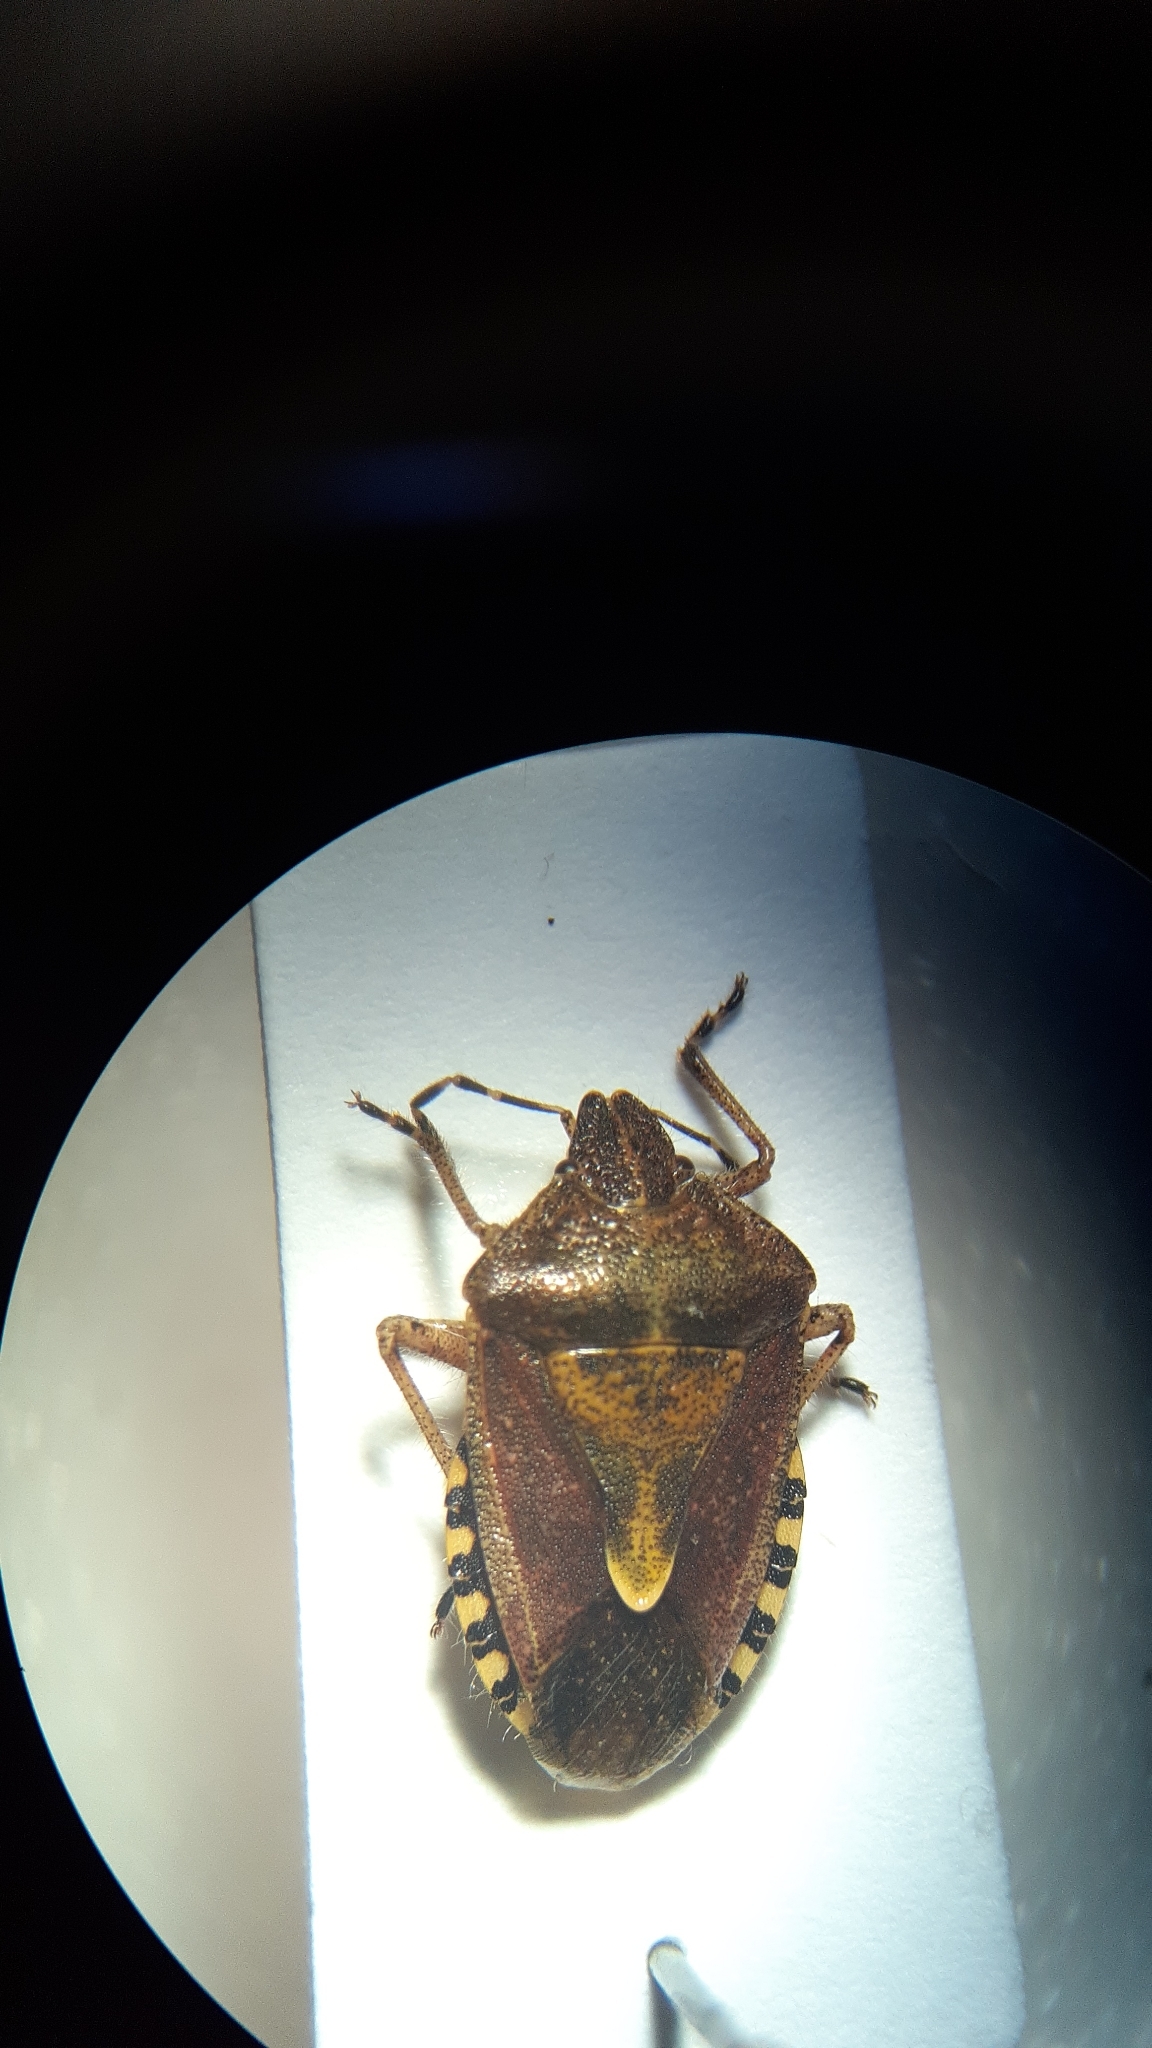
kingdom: Animalia
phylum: Arthropoda
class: Insecta
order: Hemiptera
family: Pentatomidae
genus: Dolycoris
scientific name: Dolycoris baccarum
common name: Sloe bug
